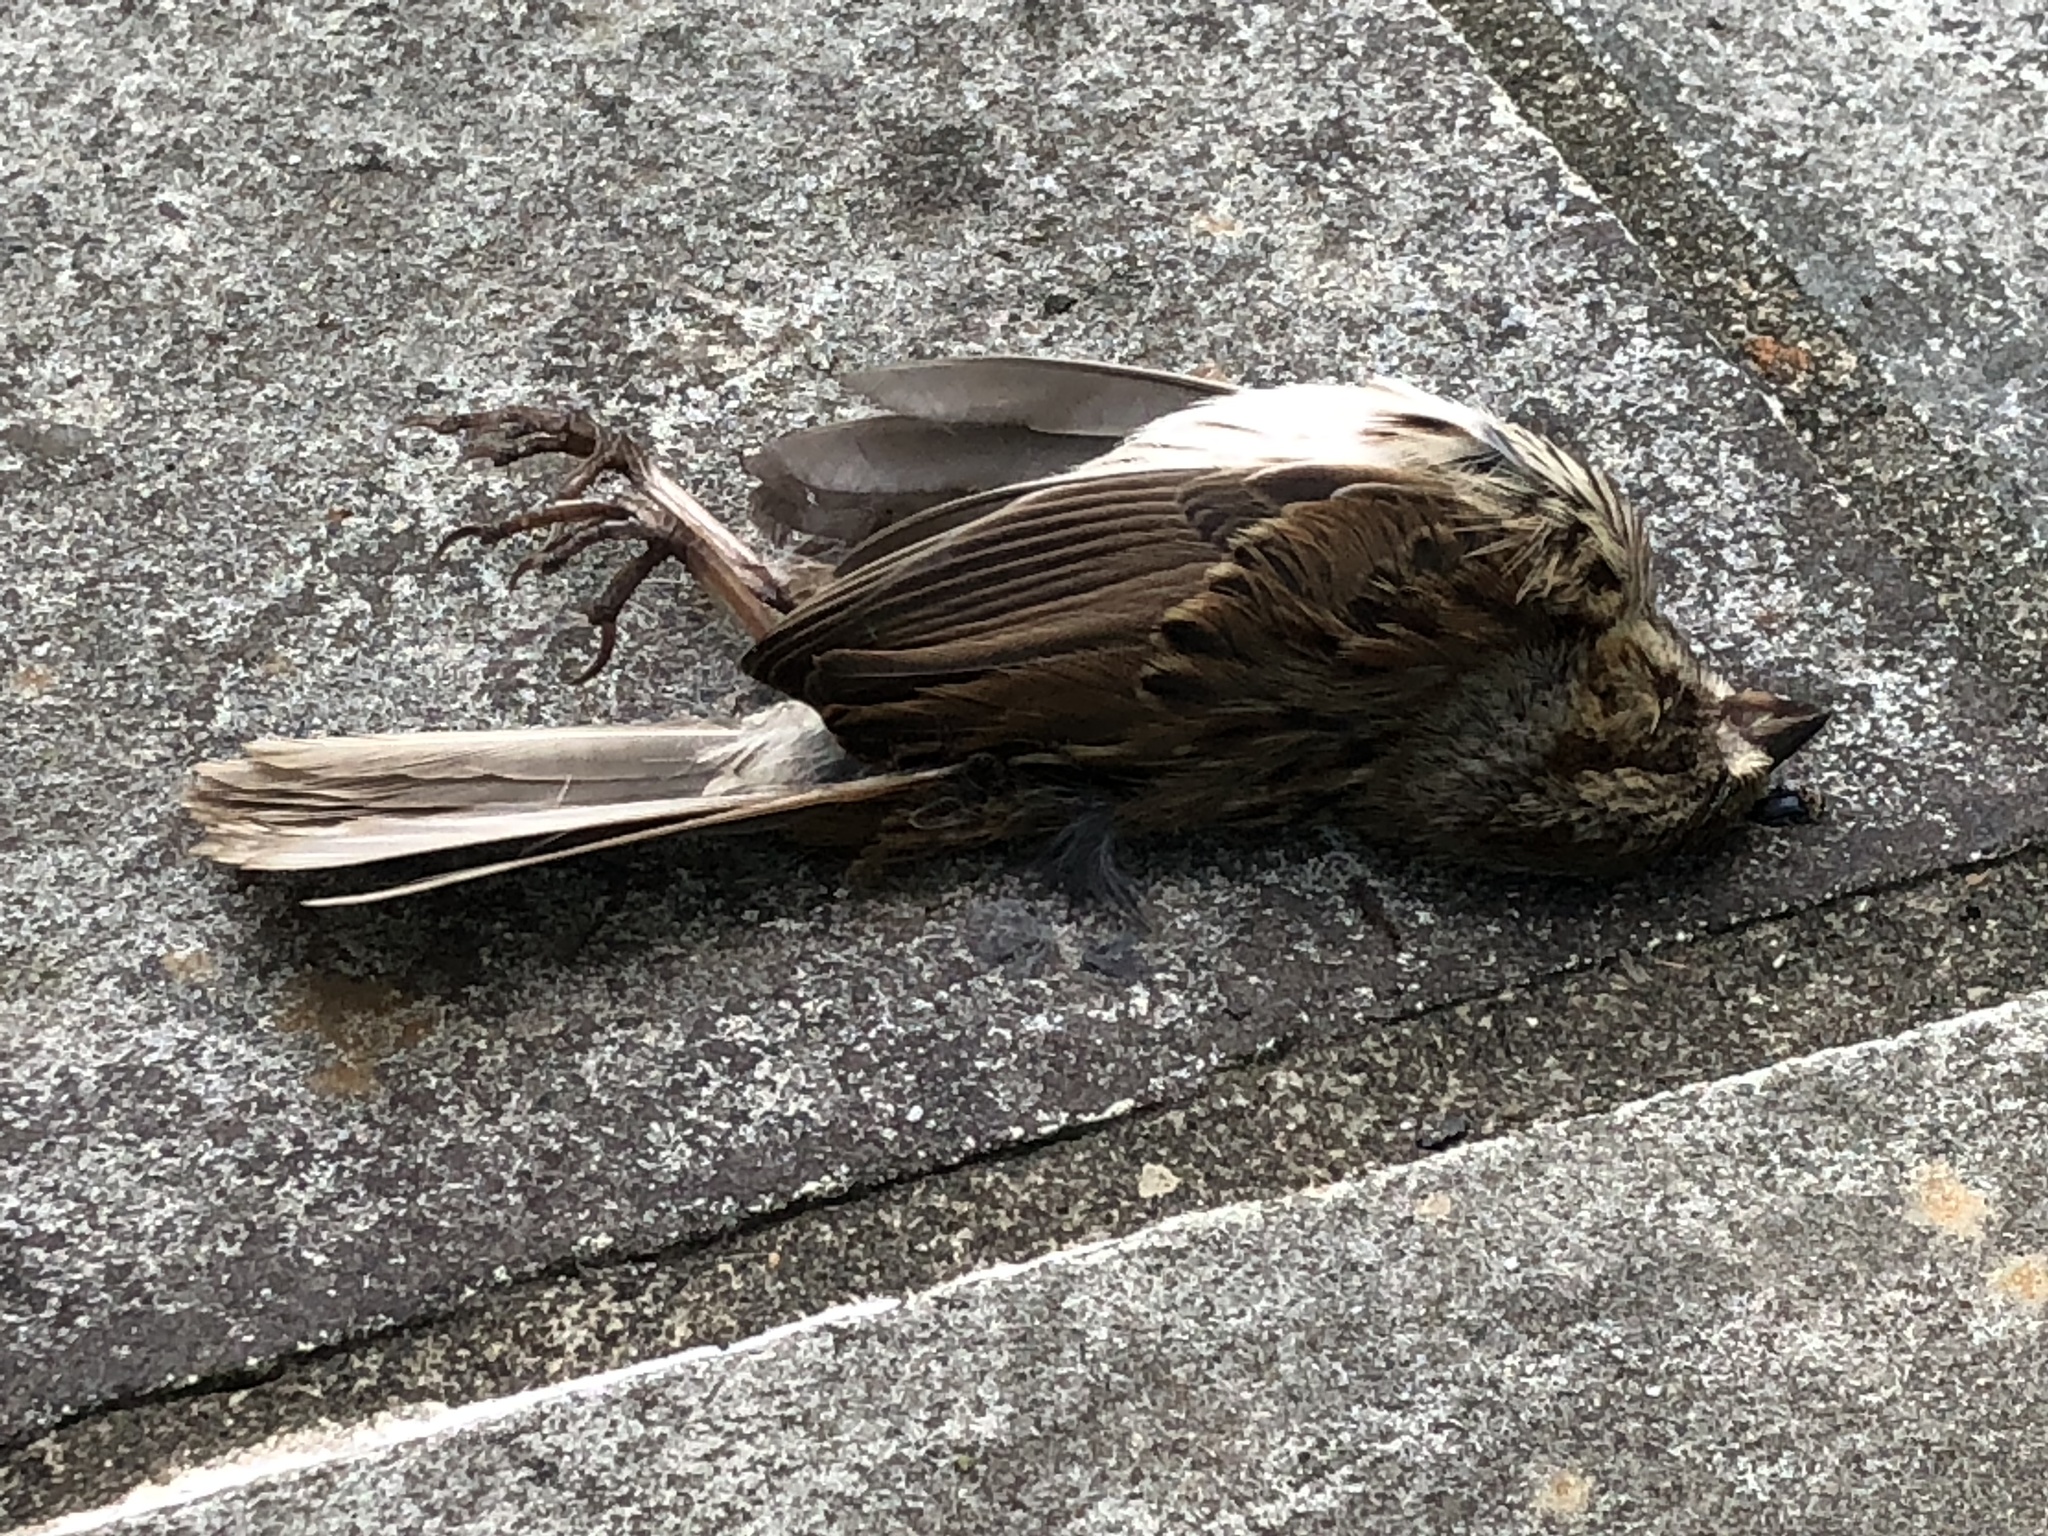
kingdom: Animalia
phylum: Chordata
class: Aves
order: Passeriformes
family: Passerellidae
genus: Melospiza
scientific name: Melospiza melodia
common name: Song sparrow
